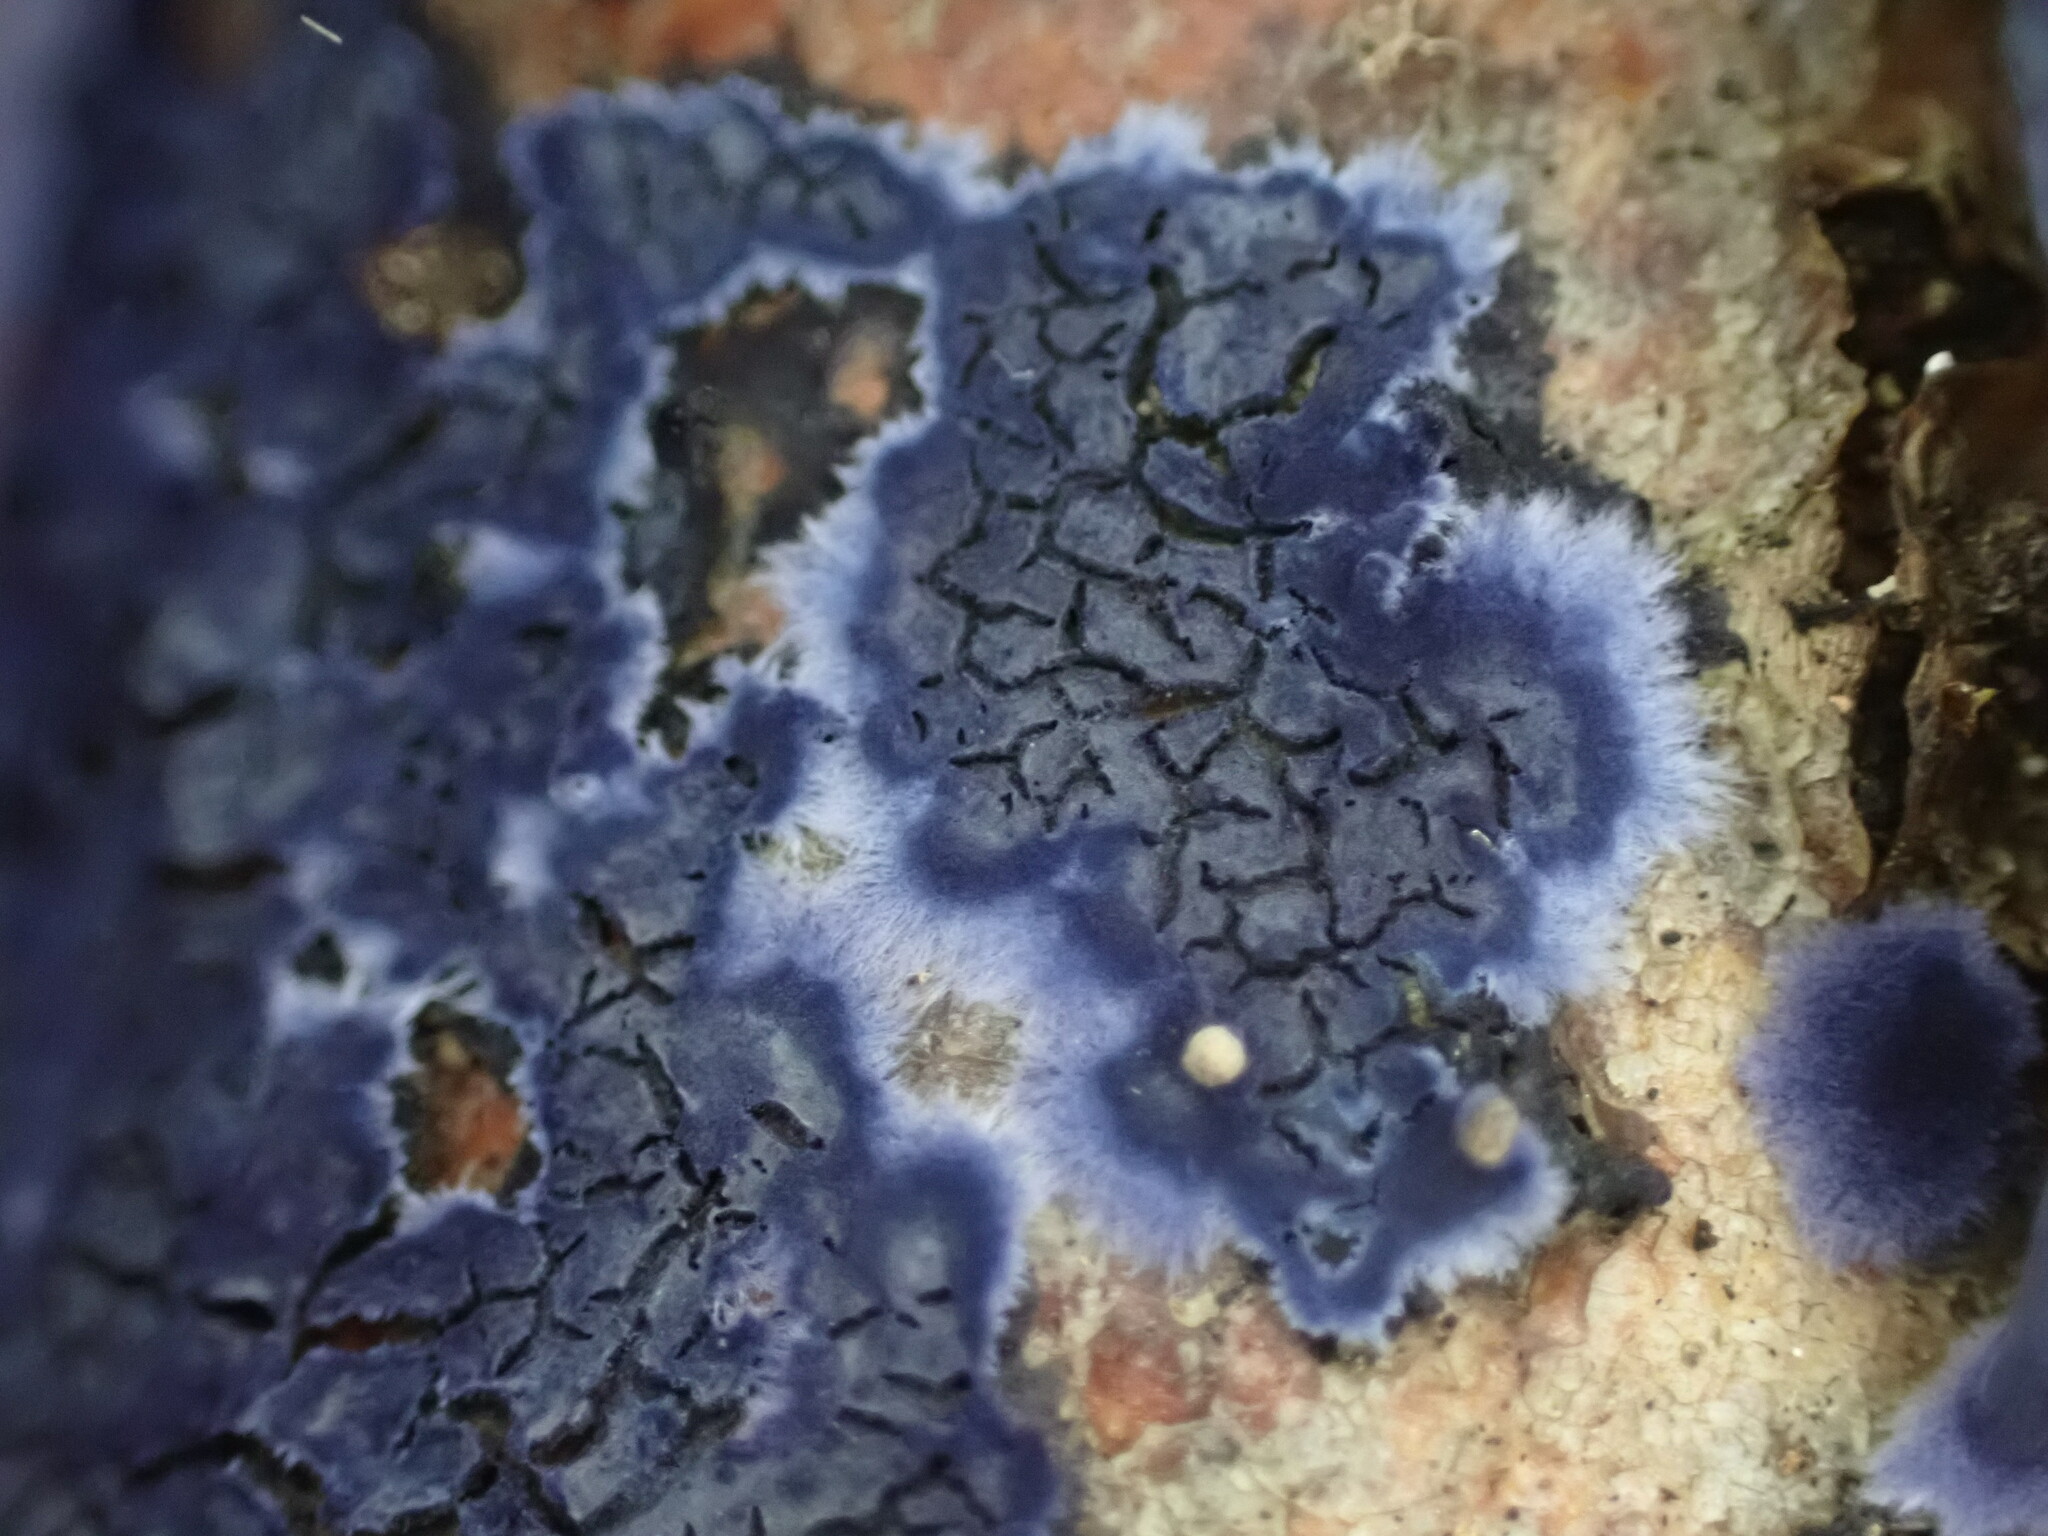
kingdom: Fungi
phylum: Basidiomycota
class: Agaricomycetes
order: Polyporales
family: Phanerochaetaceae
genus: Terana
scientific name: Terana coerulea
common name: Cobalt crust
